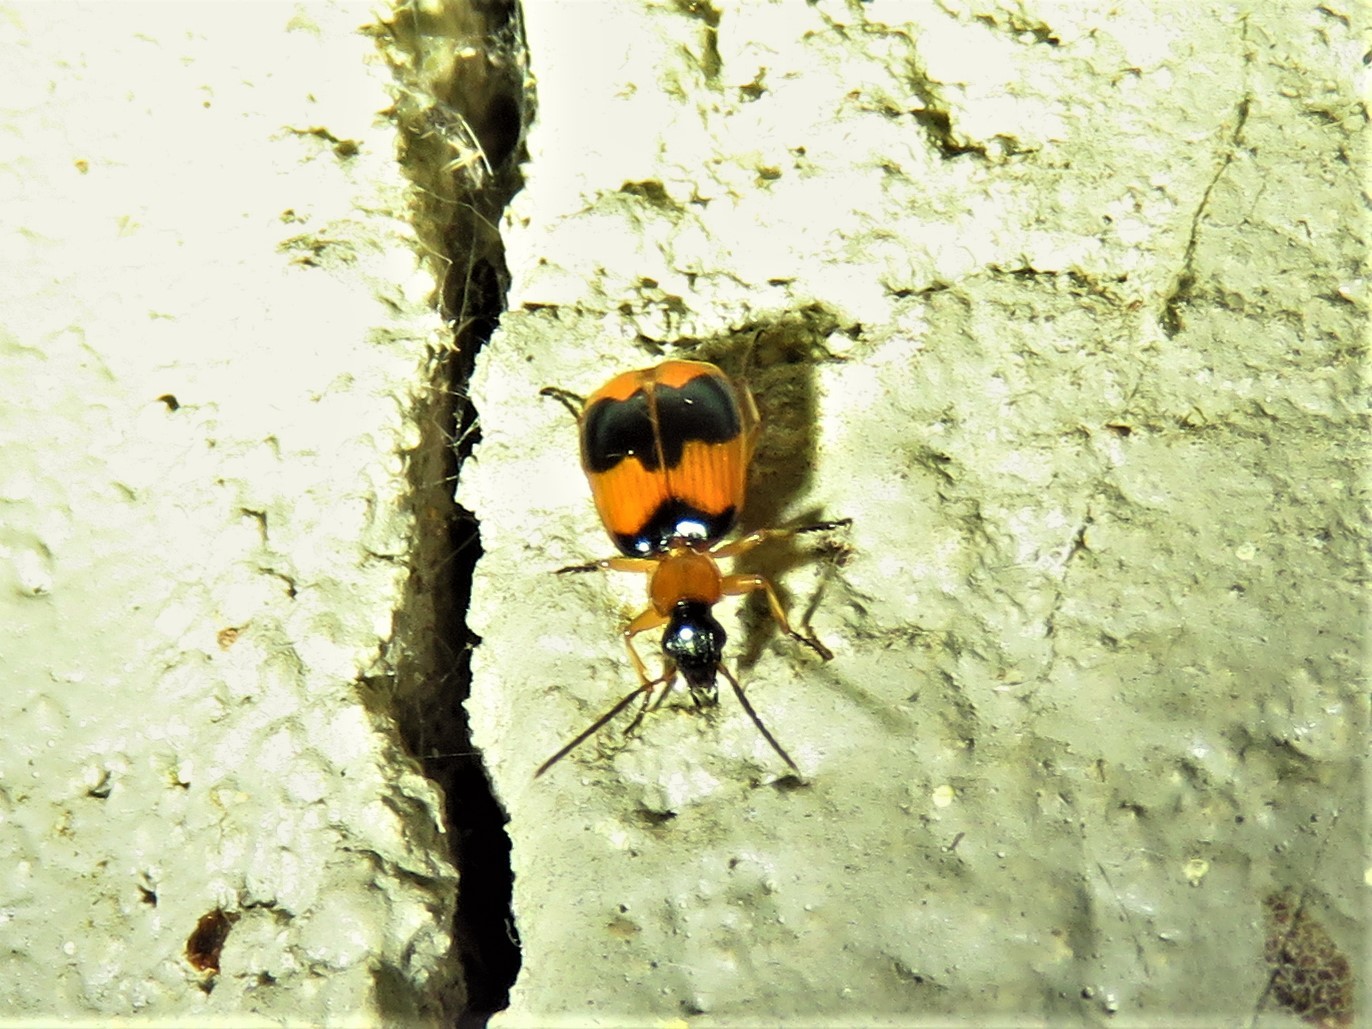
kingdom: Animalia
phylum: Arthropoda
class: Insecta
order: Coleoptera
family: Carabidae
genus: Lebia
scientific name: Lebia pulchella
